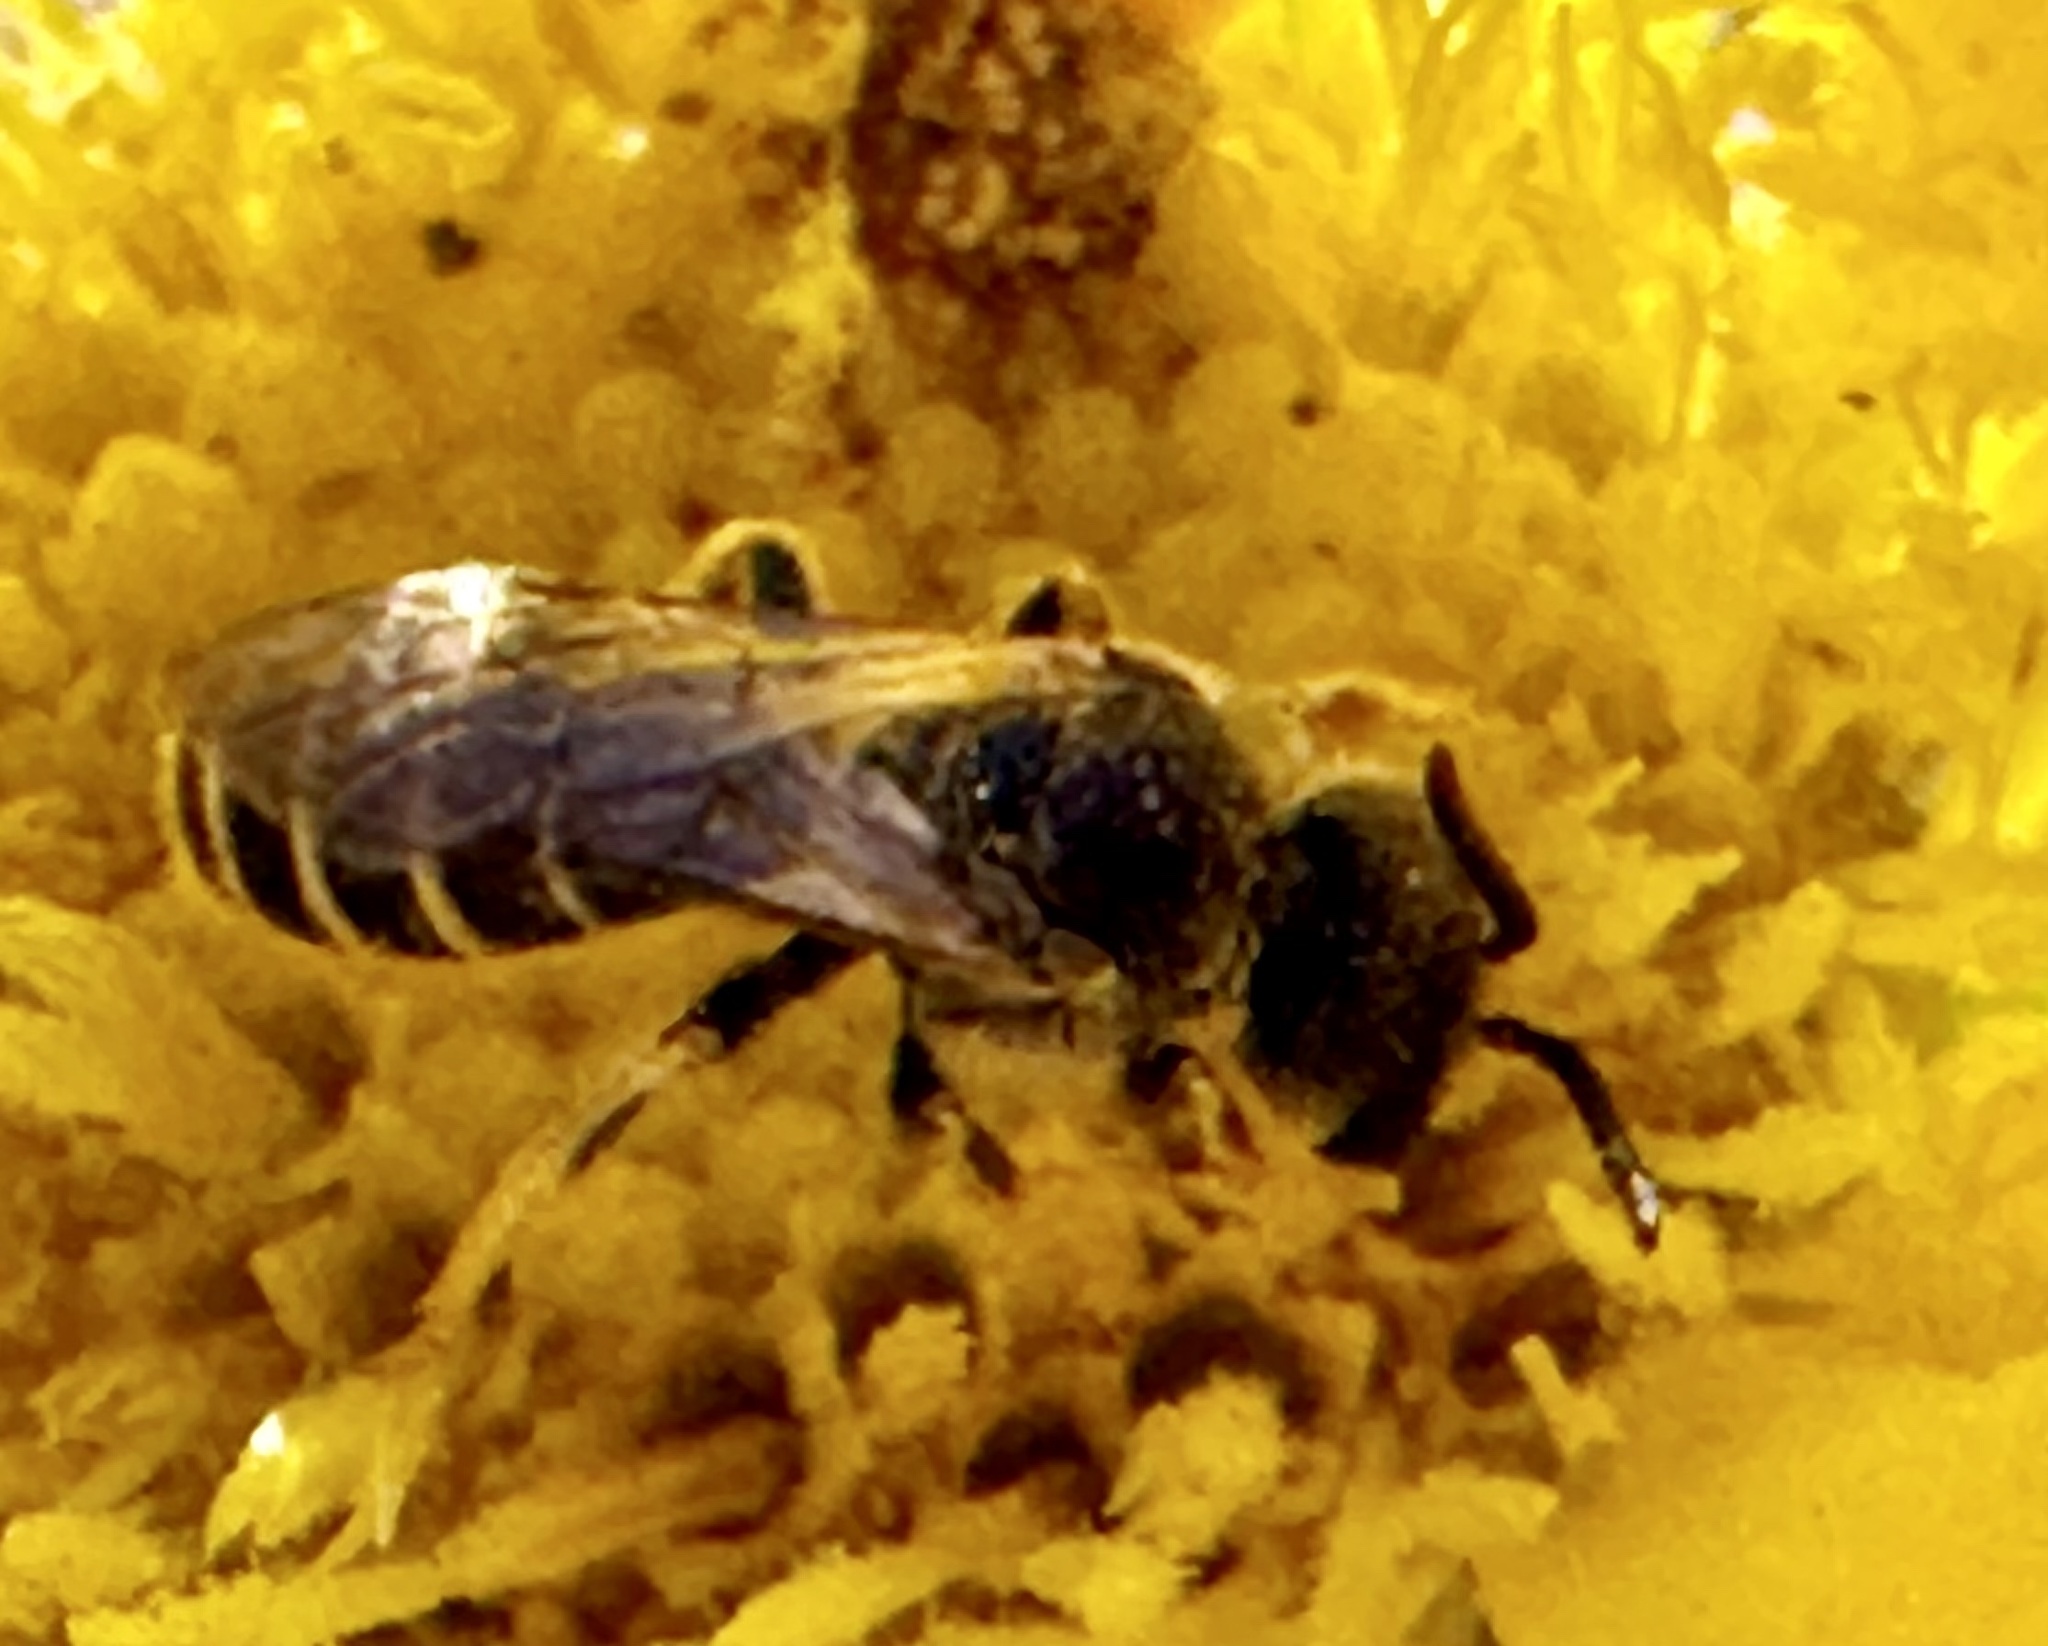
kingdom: Animalia
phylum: Arthropoda
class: Insecta
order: Hymenoptera
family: Halictidae
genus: Halictus
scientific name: Halictus ligatus
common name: Ligated furrow bee
